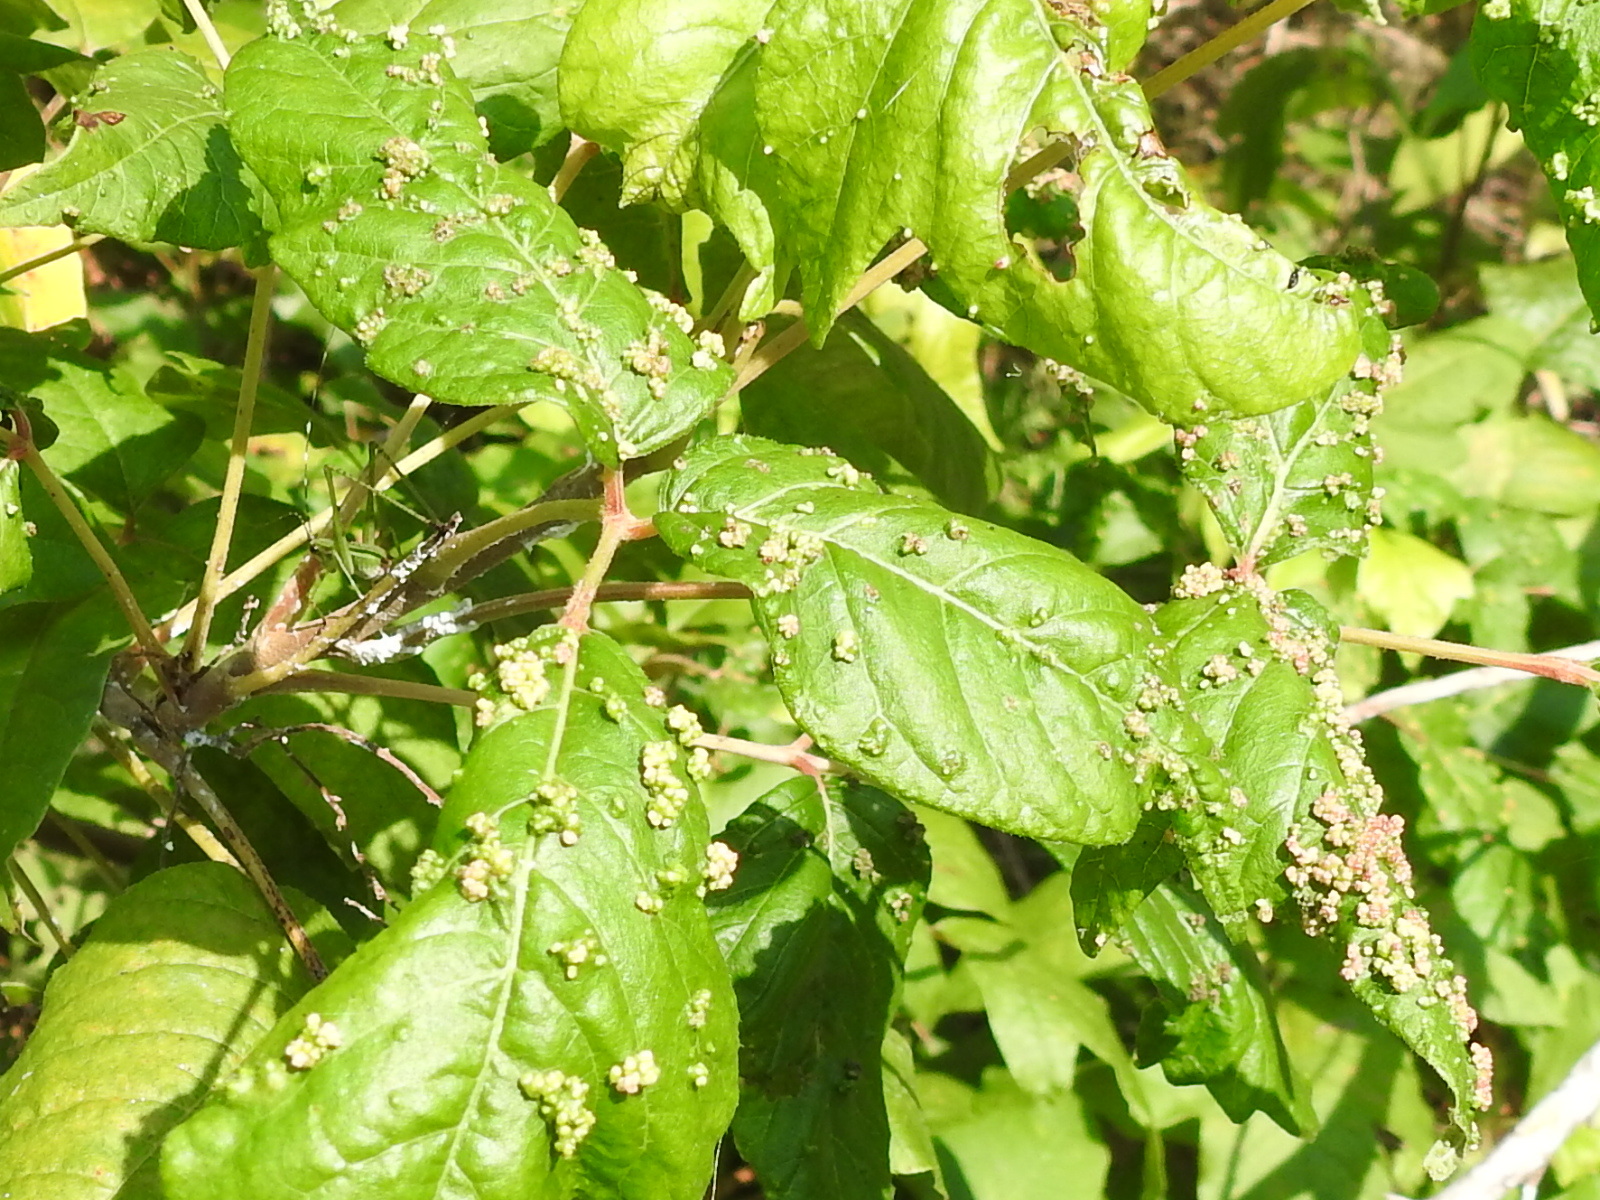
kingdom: Animalia
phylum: Arthropoda
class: Arachnida
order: Trombidiformes
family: Eriophyidae
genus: Aculops
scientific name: Aculops
